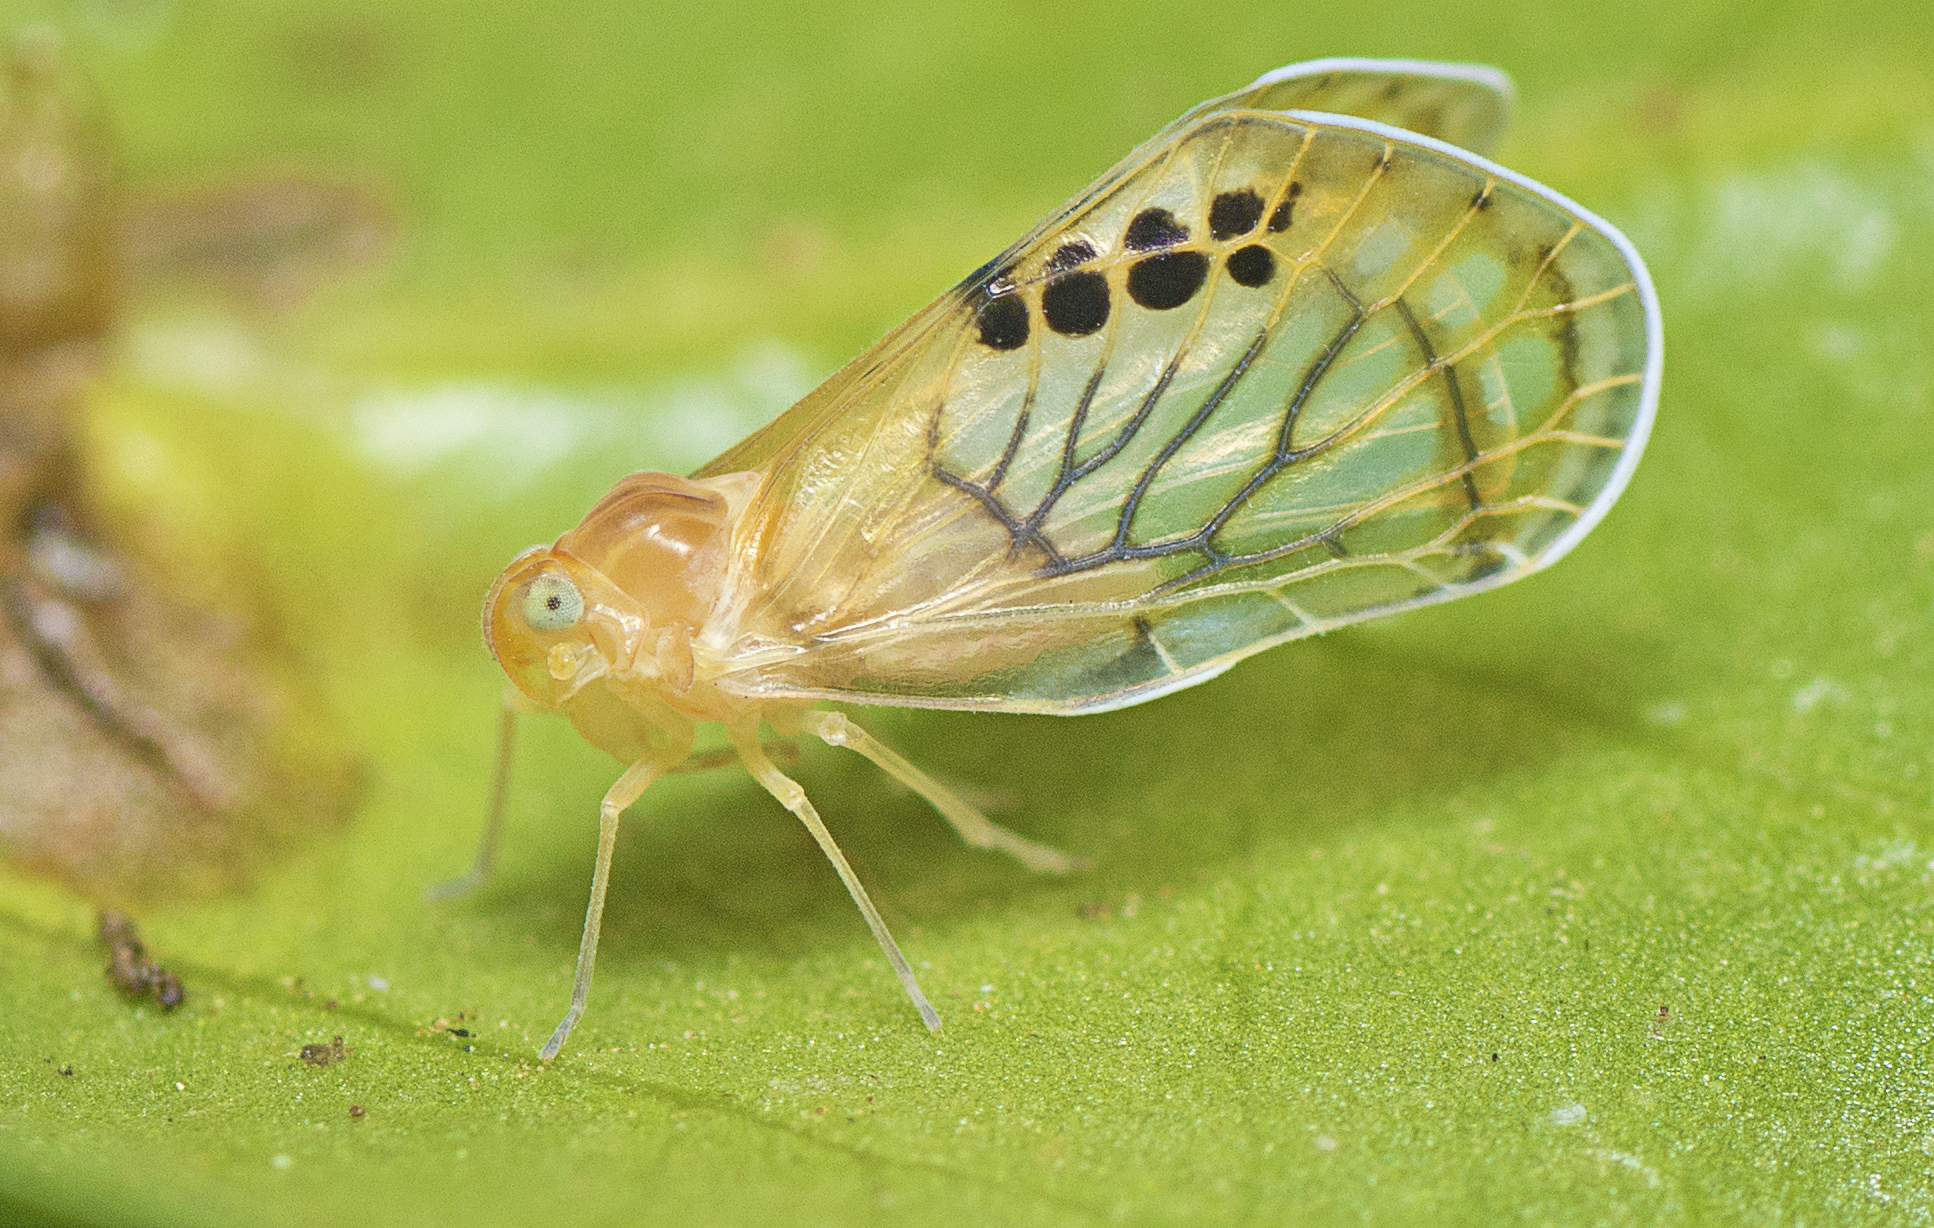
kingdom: Animalia
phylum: Arthropoda
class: Insecta
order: Hemiptera
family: Derbidae
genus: Rhotana
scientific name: Rhotana gressittorum
